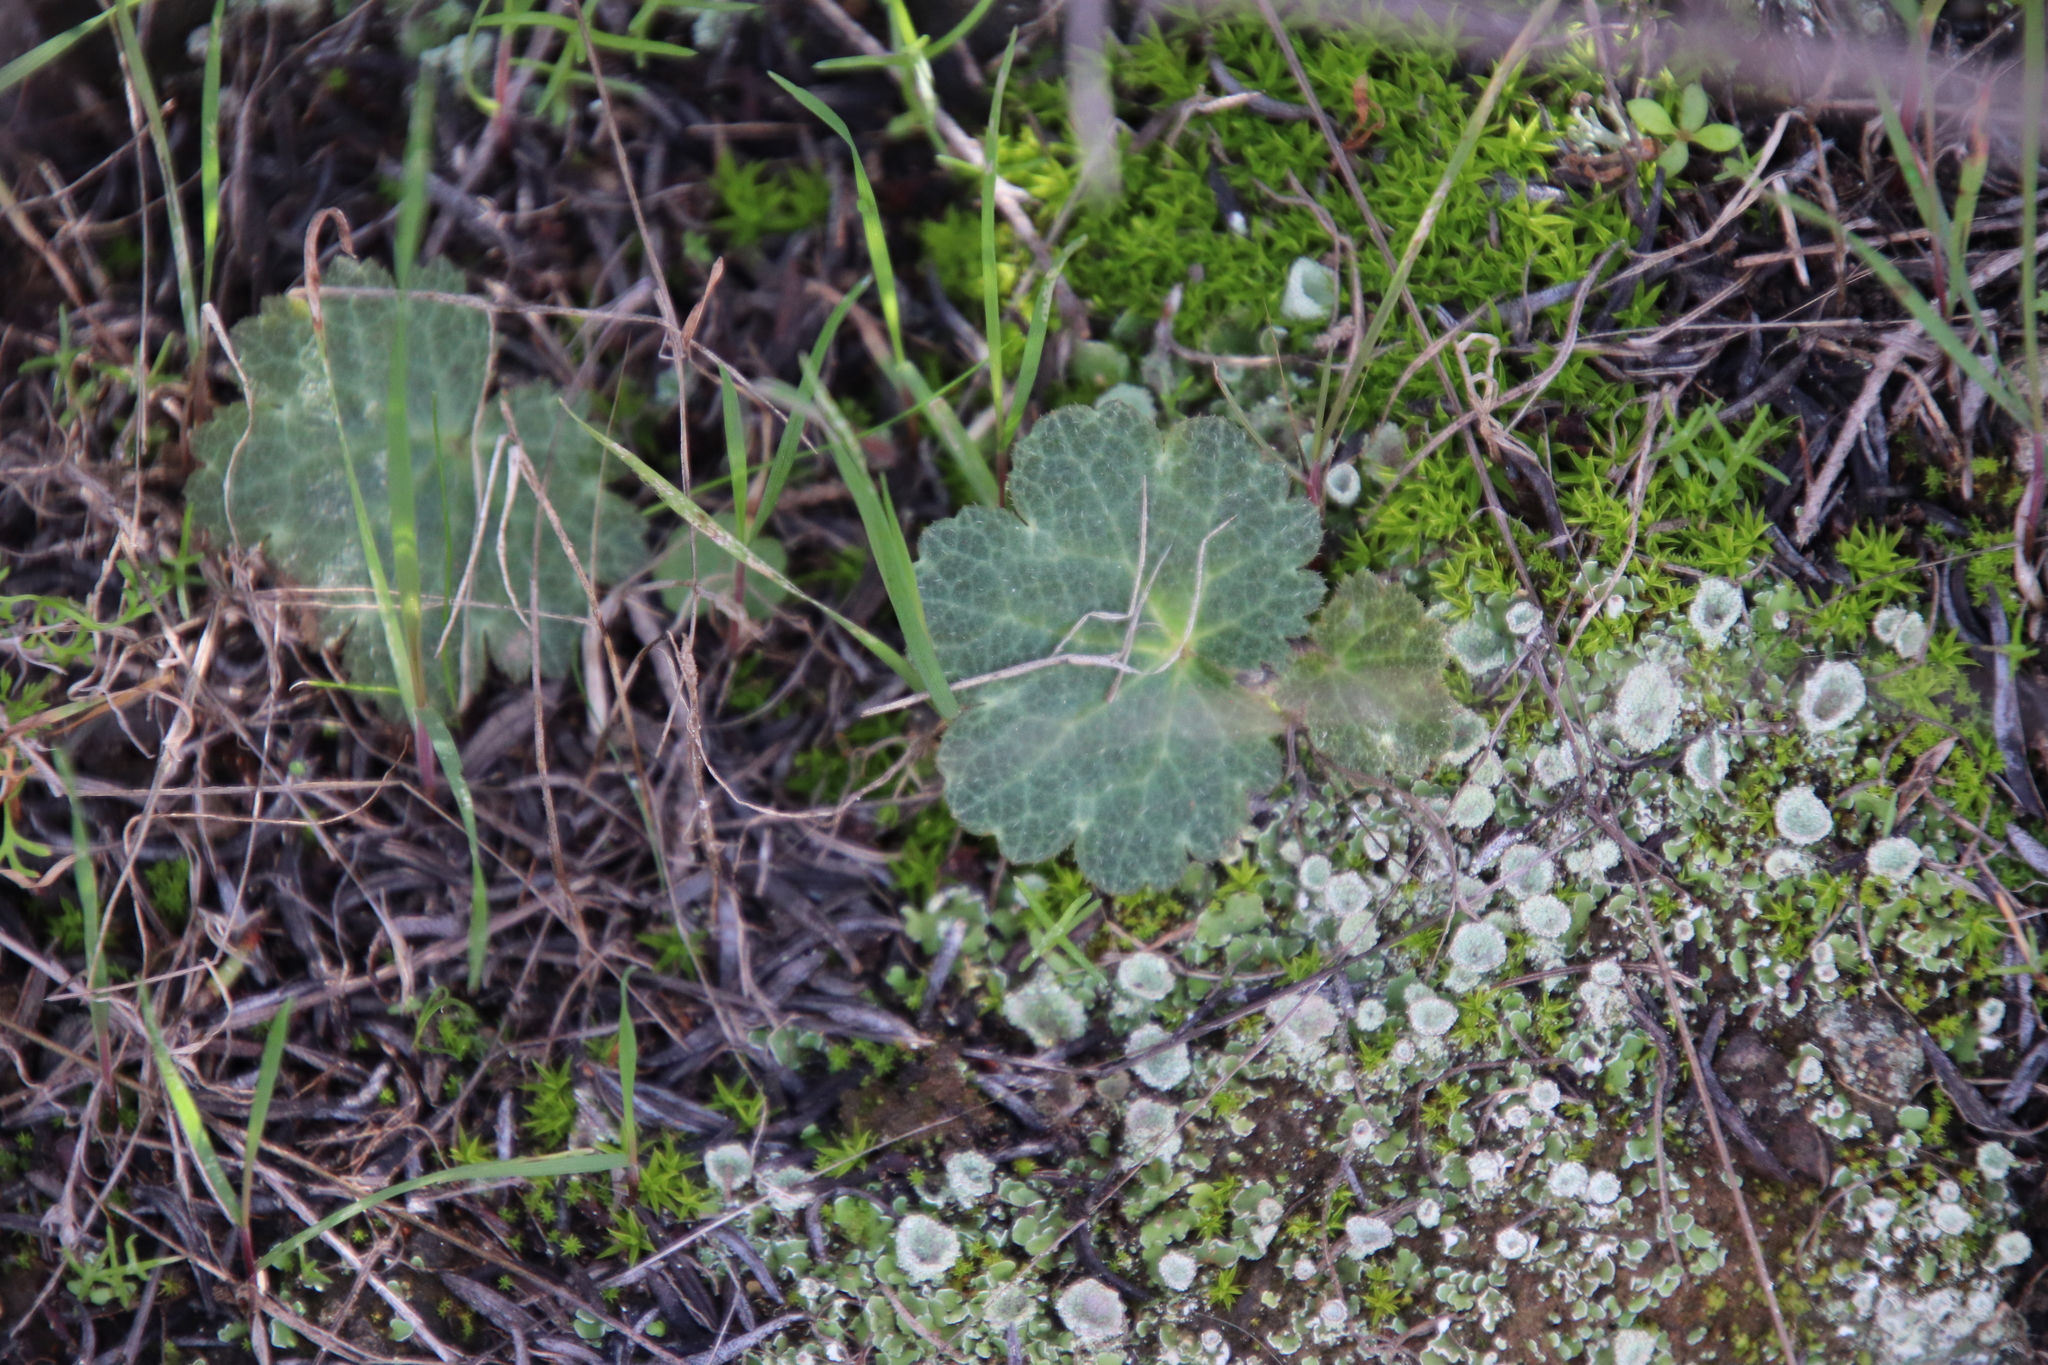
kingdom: Plantae
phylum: Tracheophyta
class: Magnoliopsida
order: Saxifragales
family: Saxifragaceae
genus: Jepsonia
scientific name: Jepsonia parryi
